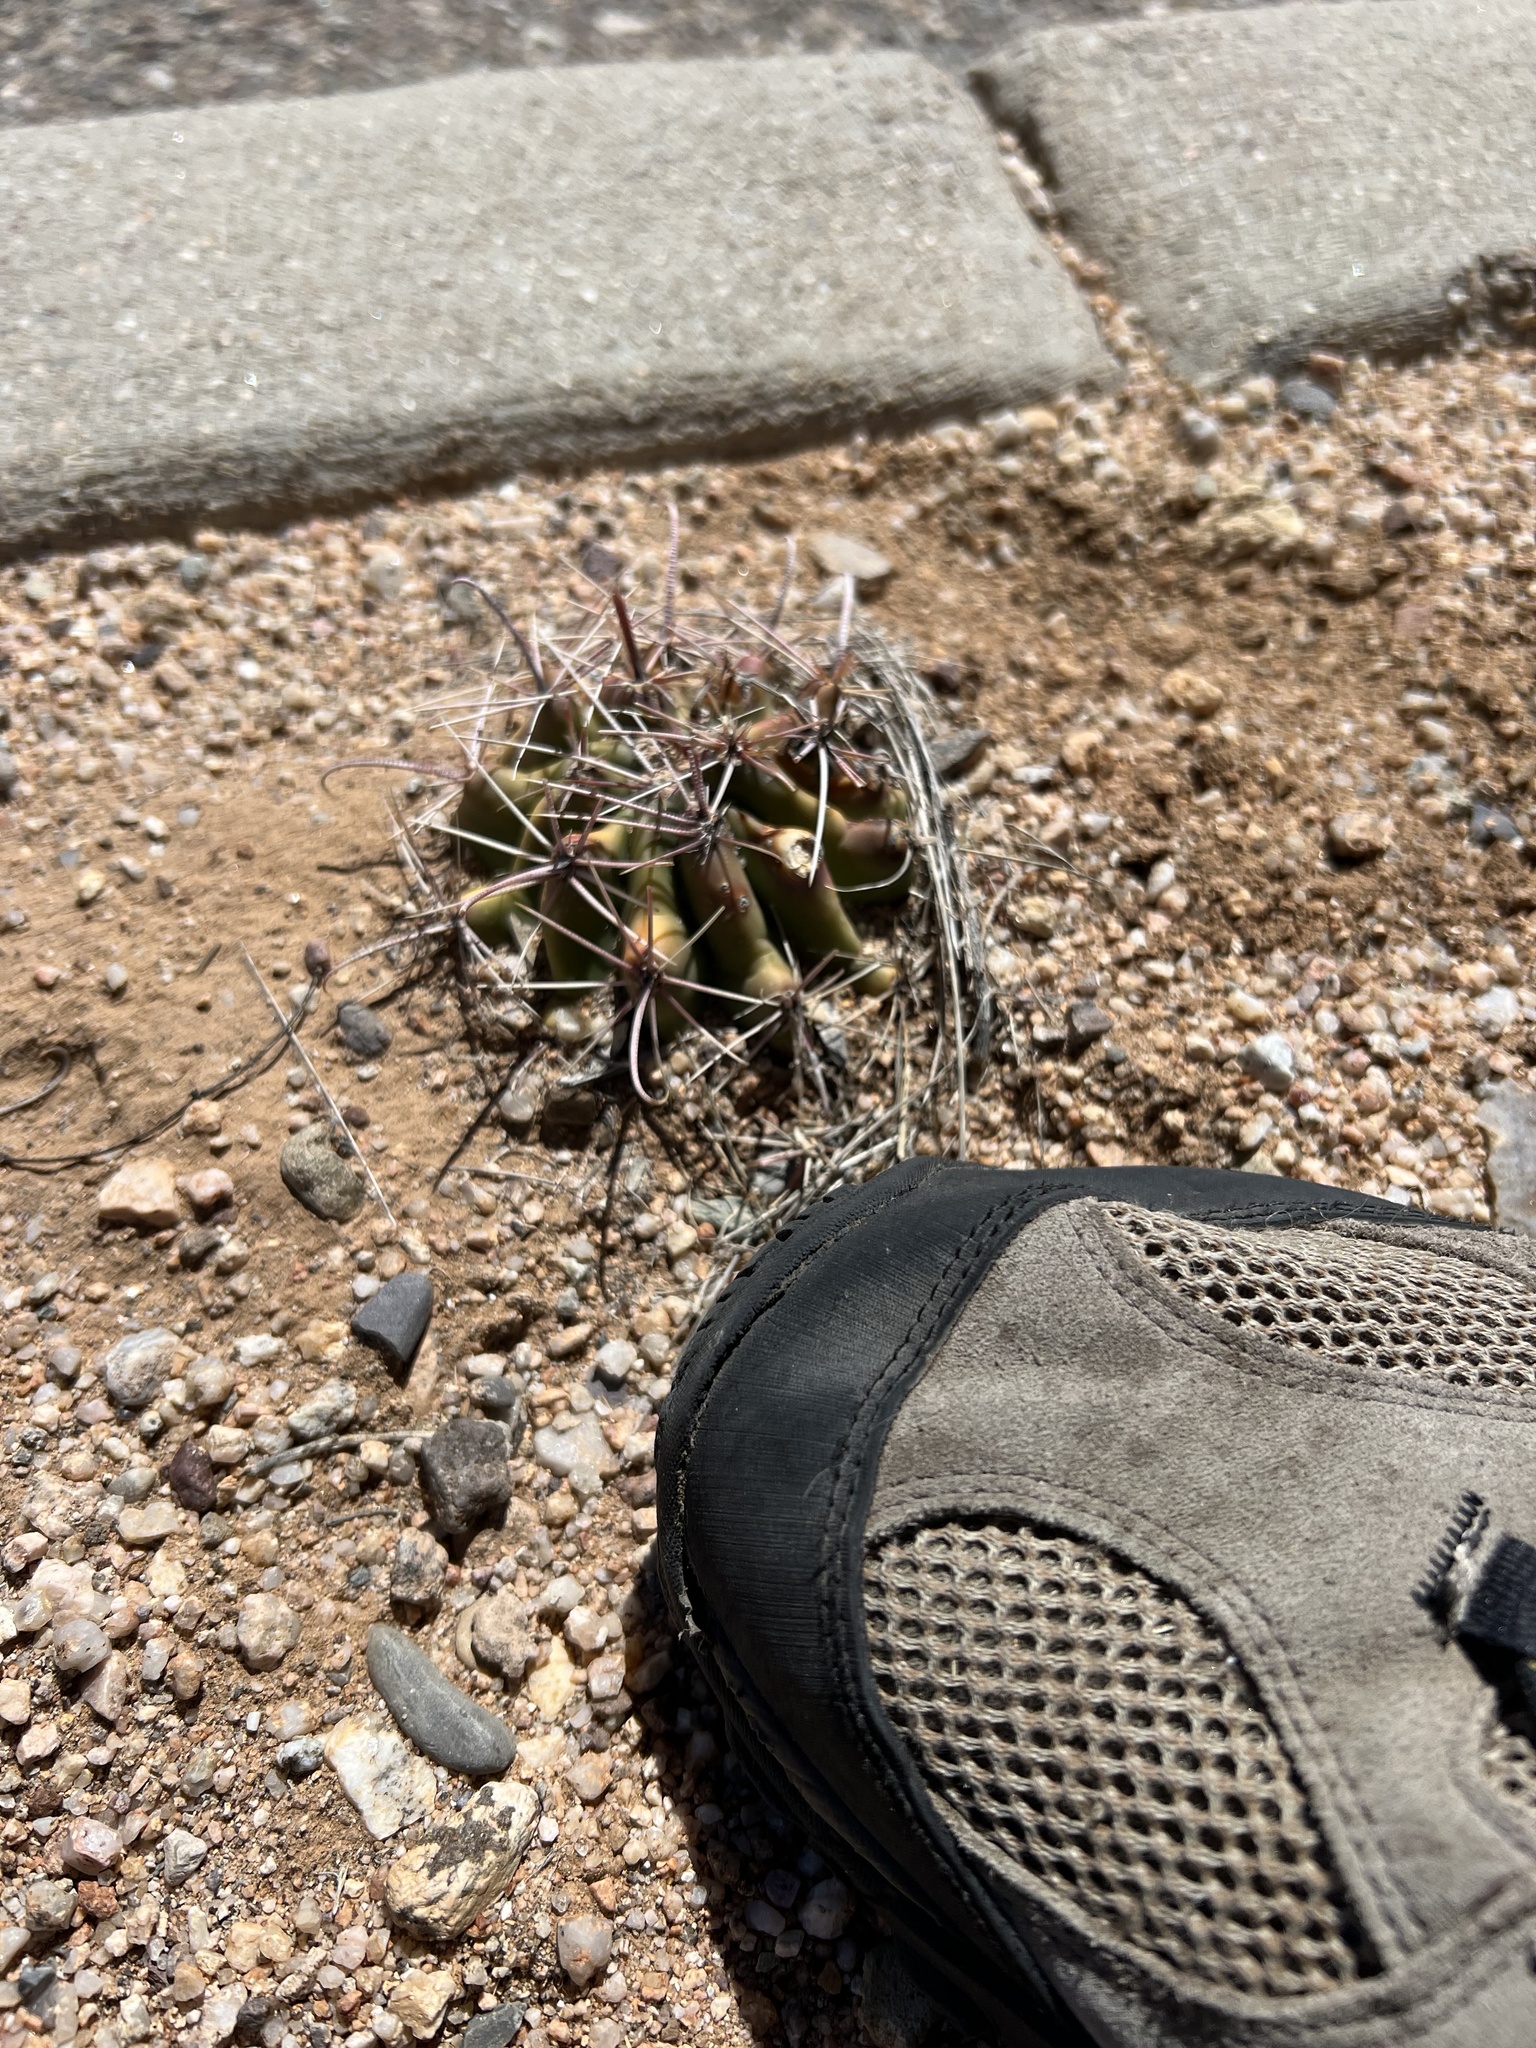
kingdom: Plantae
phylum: Tracheophyta
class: Magnoliopsida
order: Caryophyllales
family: Cactaceae
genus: Ferocactus
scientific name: Ferocactus wislizeni
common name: Candy barrel cactus
